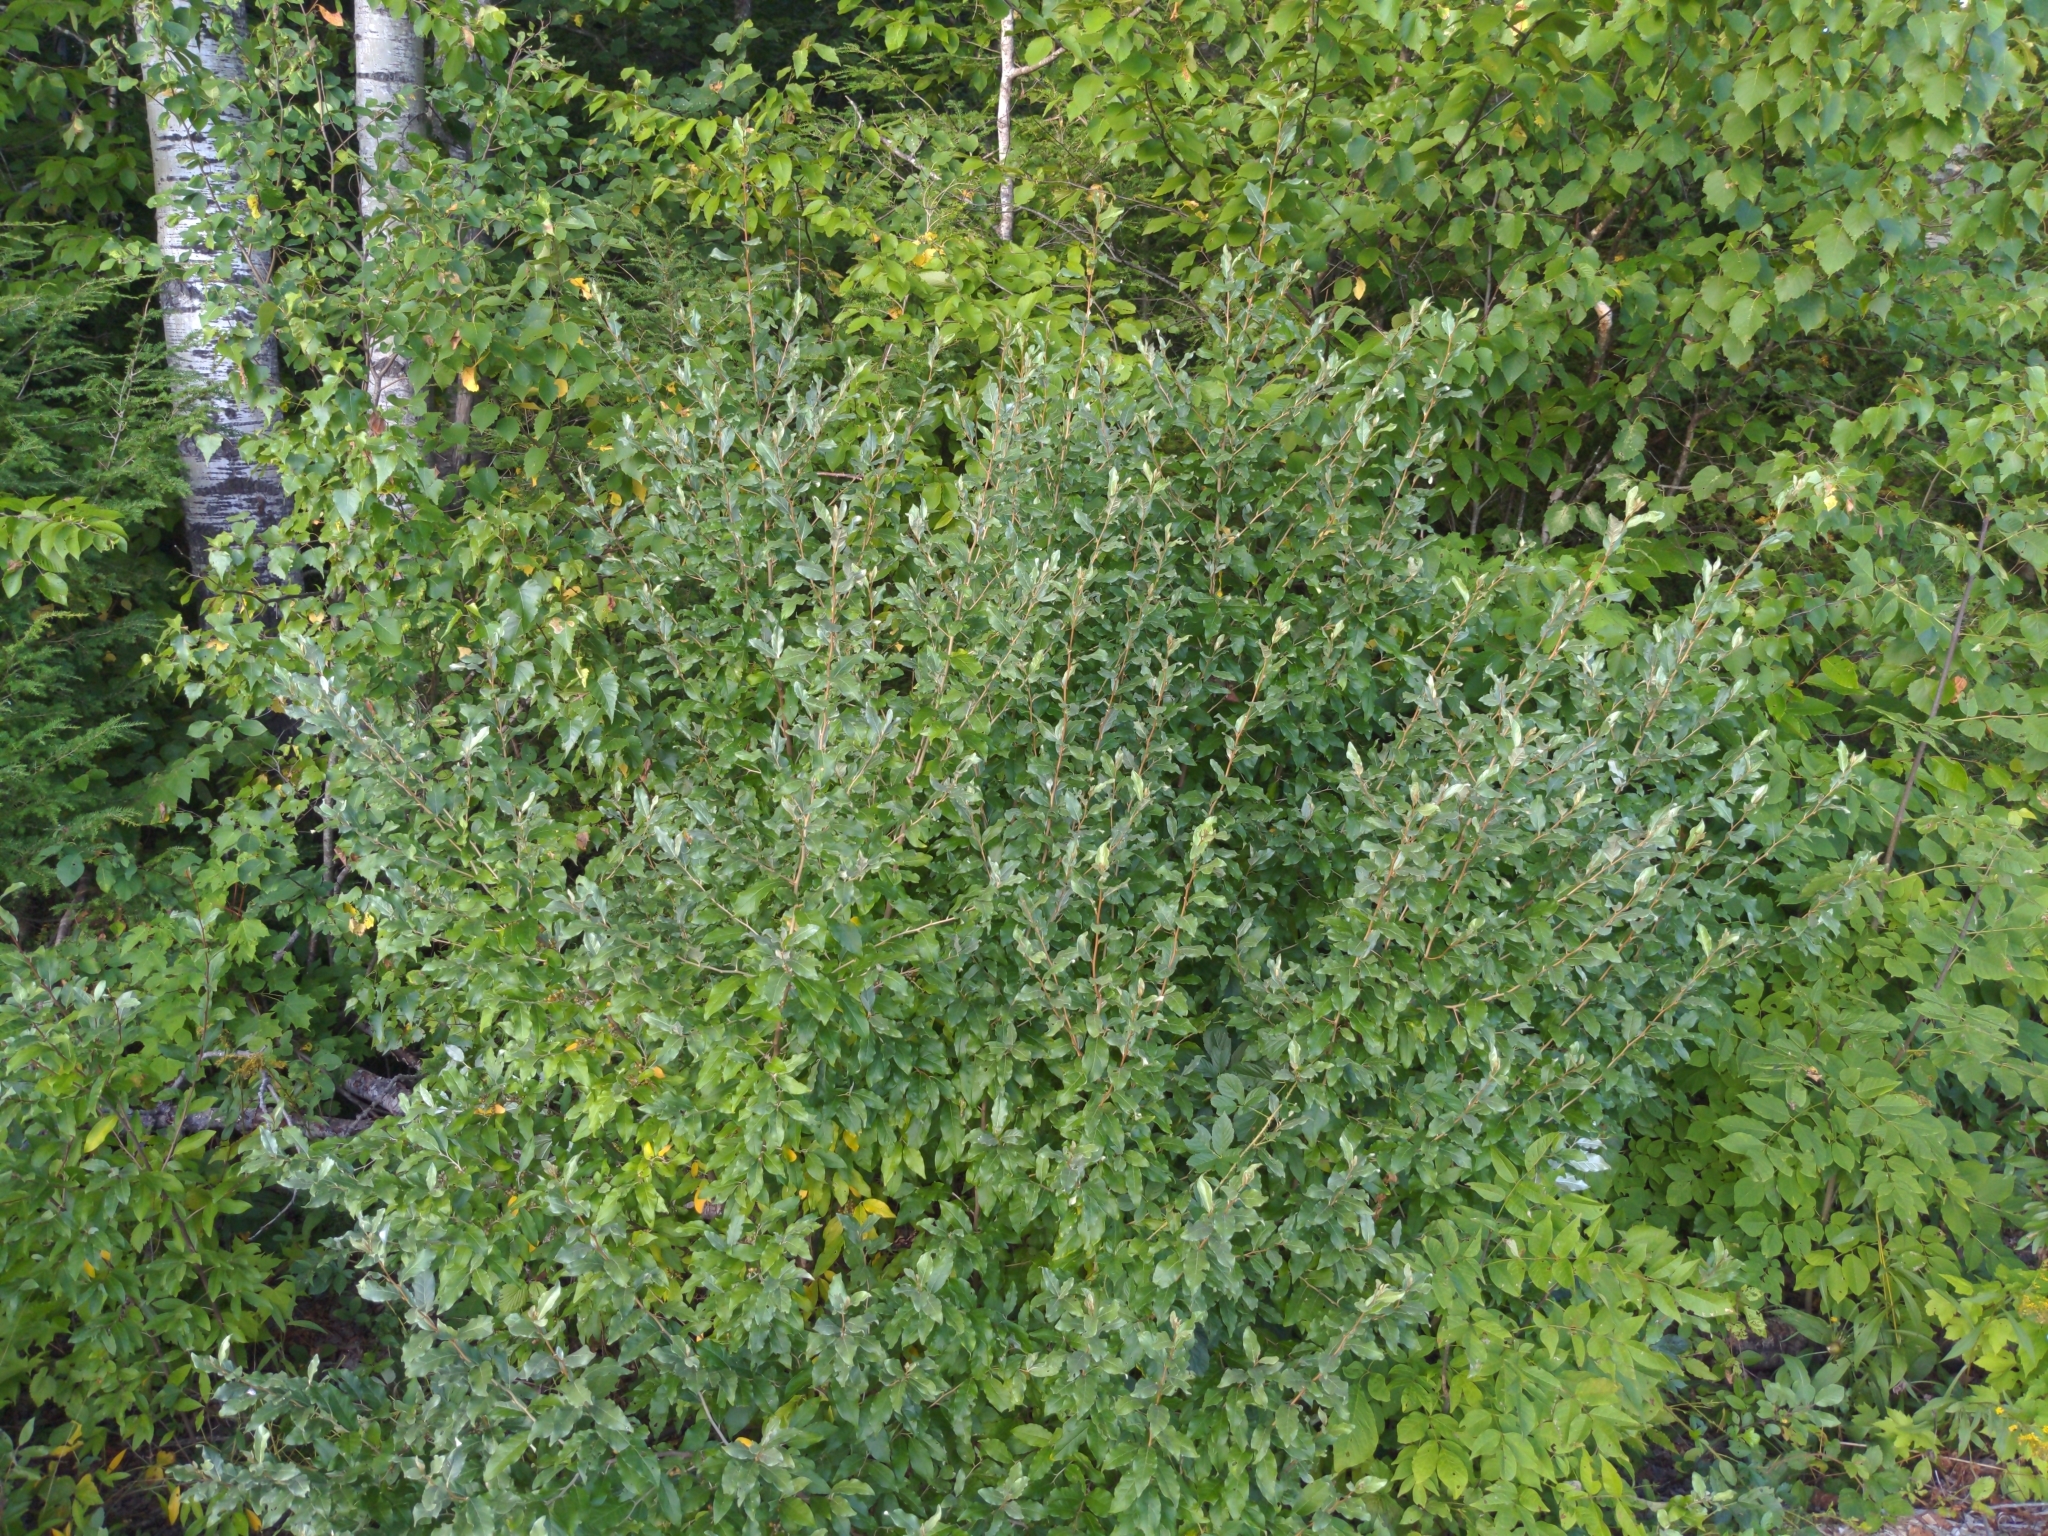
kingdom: Plantae
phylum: Tracheophyta
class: Magnoliopsida
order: Rosales
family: Elaeagnaceae
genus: Elaeagnus
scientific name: Elaeagnus umbellata
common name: Autumn olive
